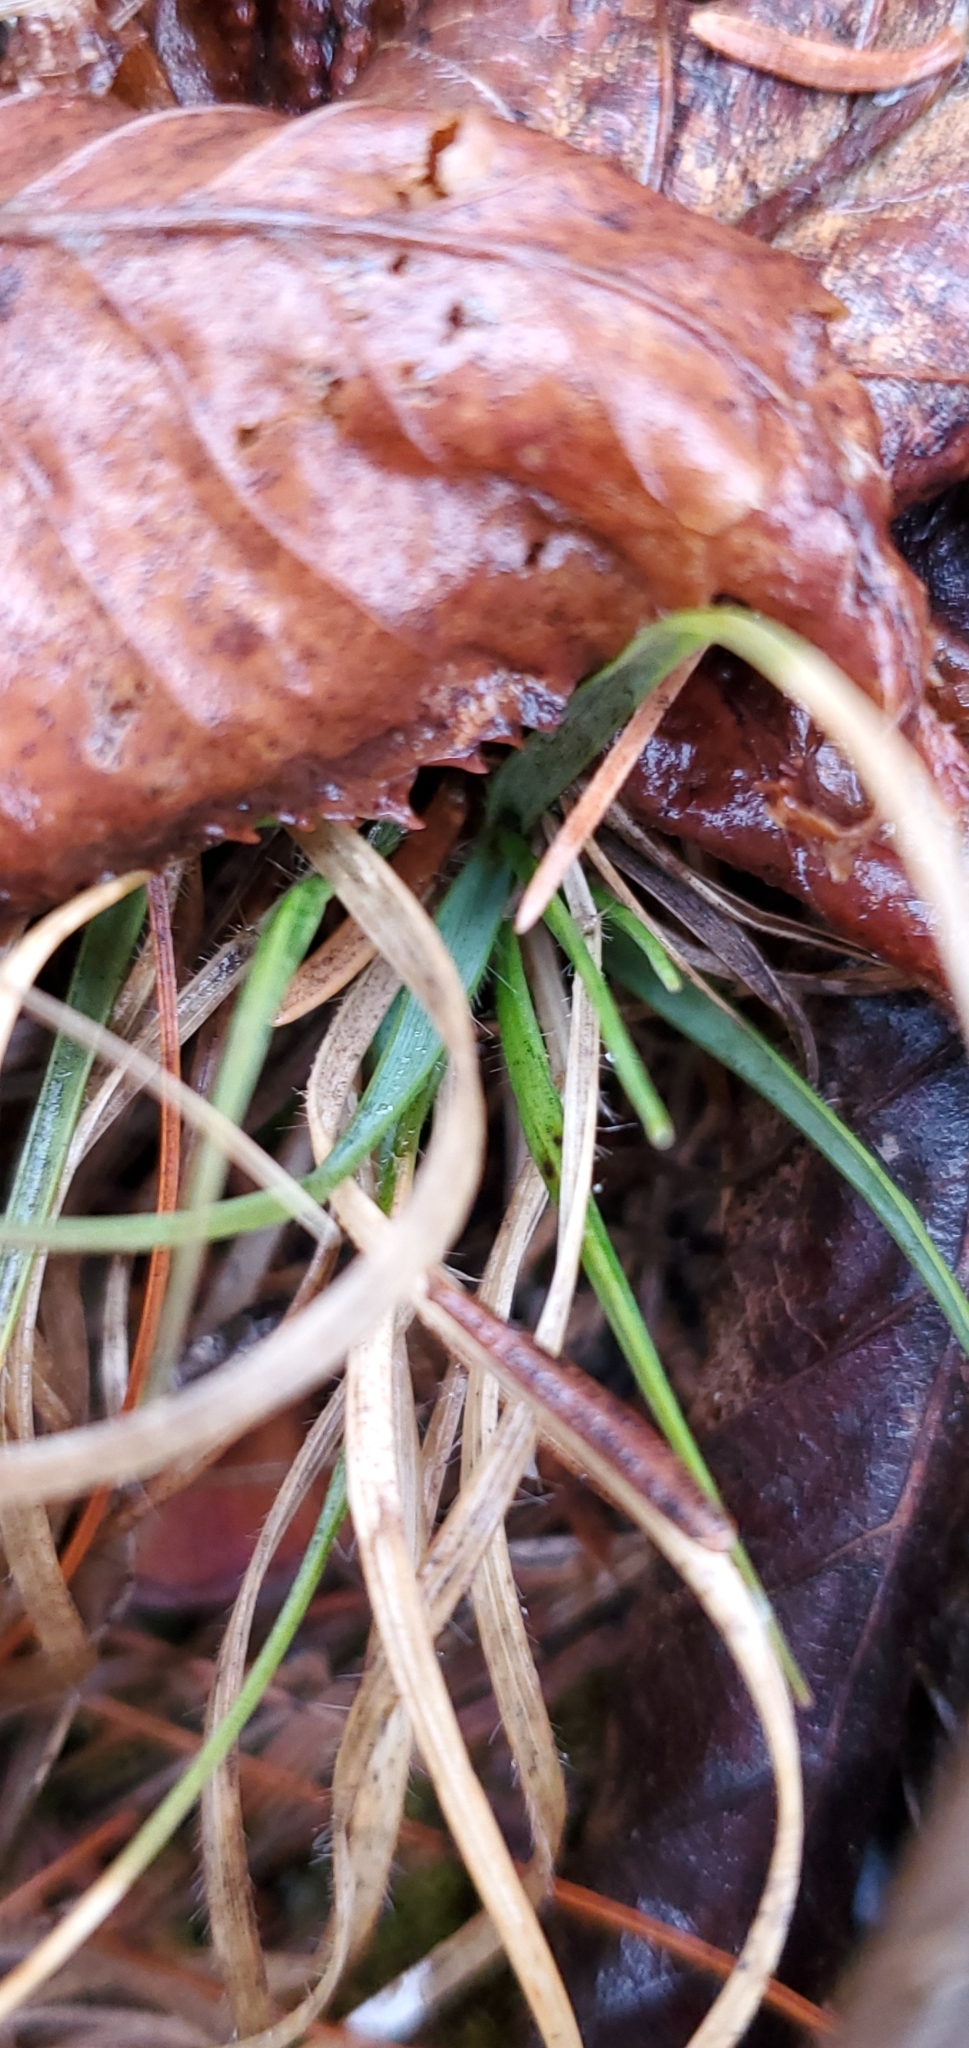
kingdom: Plantae
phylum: Tracheophyta
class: Liliopsida
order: Poales
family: Poaceae
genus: Danthonia
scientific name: Danthonia spicata
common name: Common wild oatgrass
